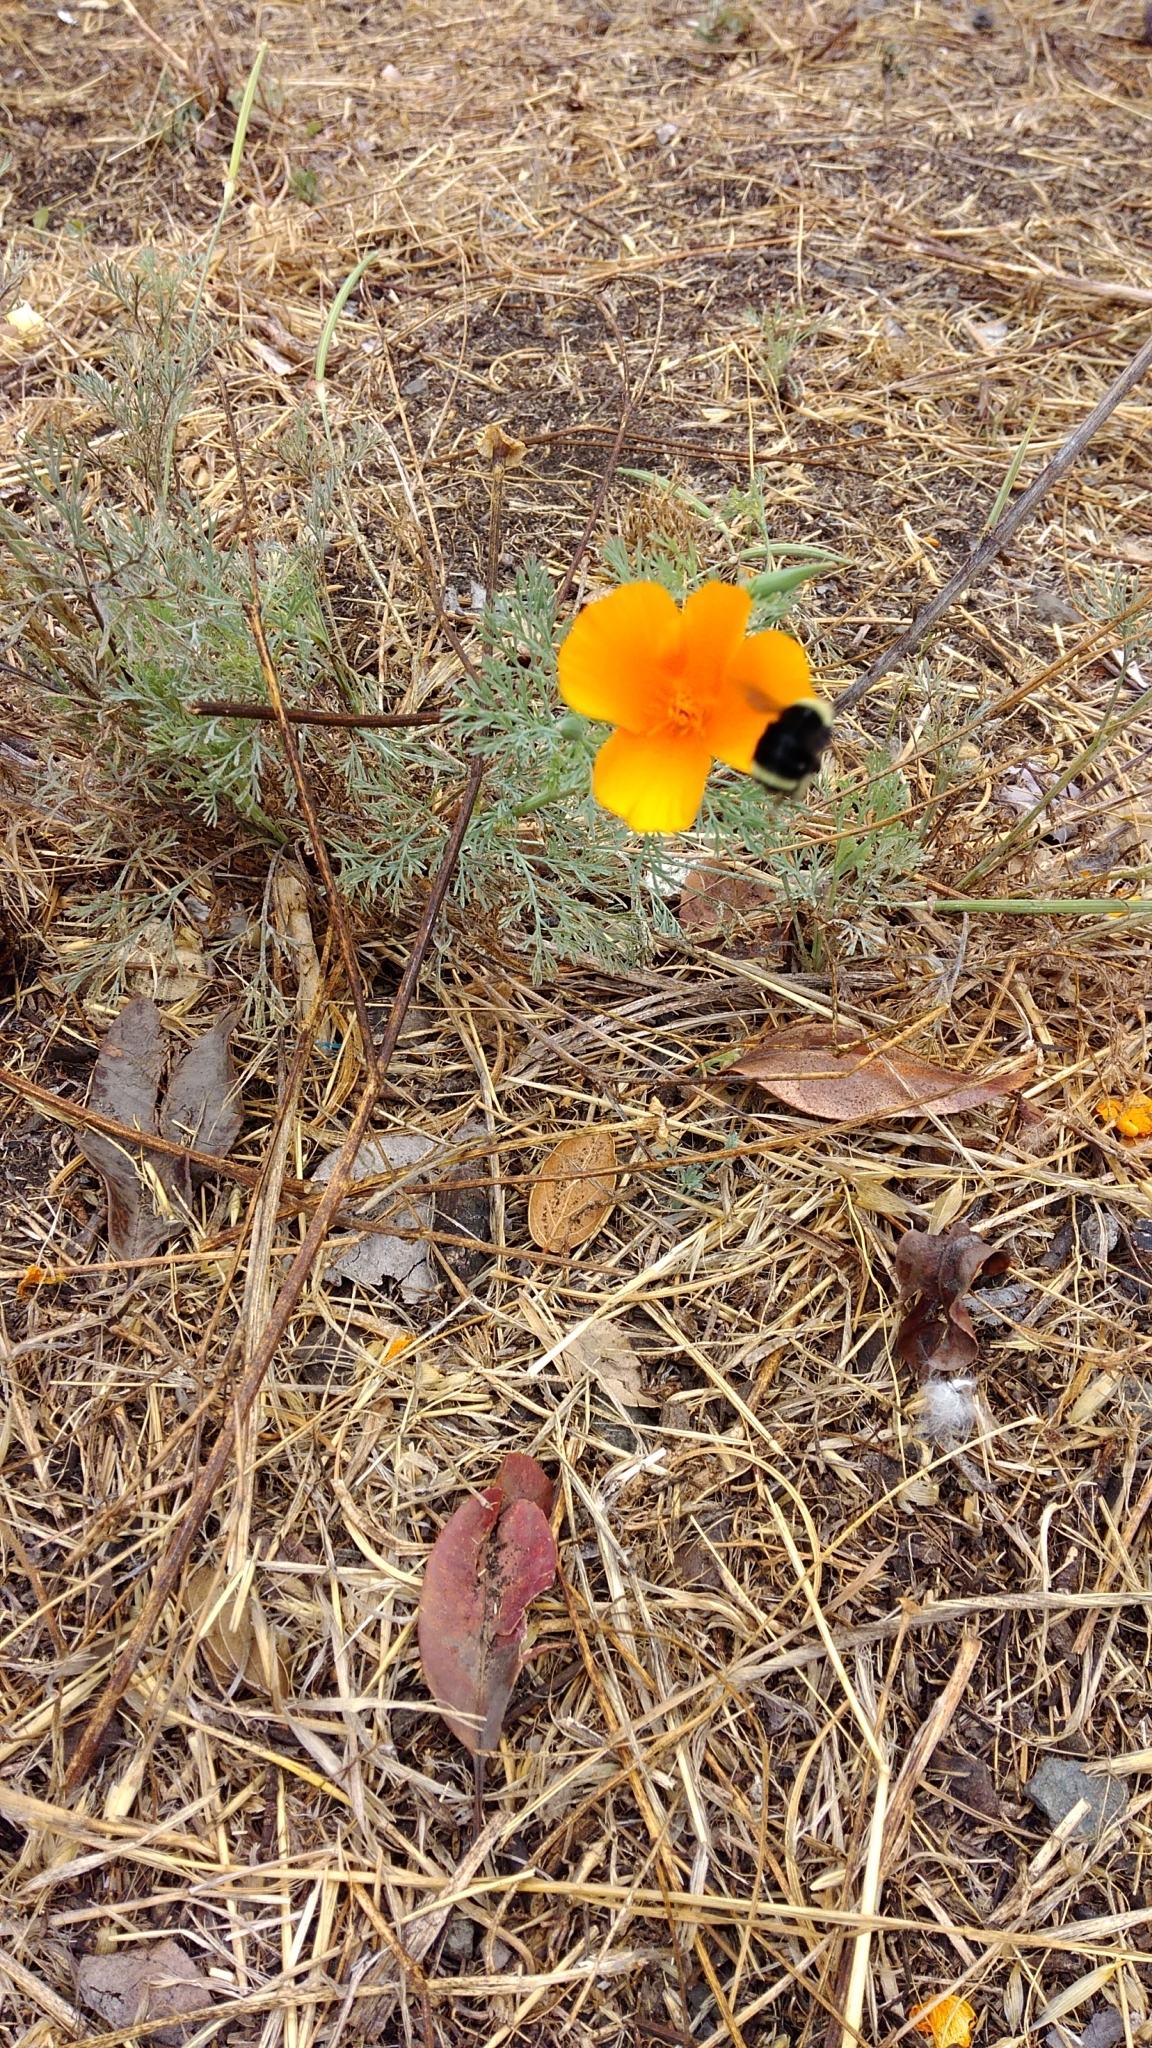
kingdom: Plantae
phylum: Tracheophyta
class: Magnoliopsida
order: Ranunculales
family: Papaveraceae
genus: Eschscholzia
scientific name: Eschscholzia californica
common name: California poppy
